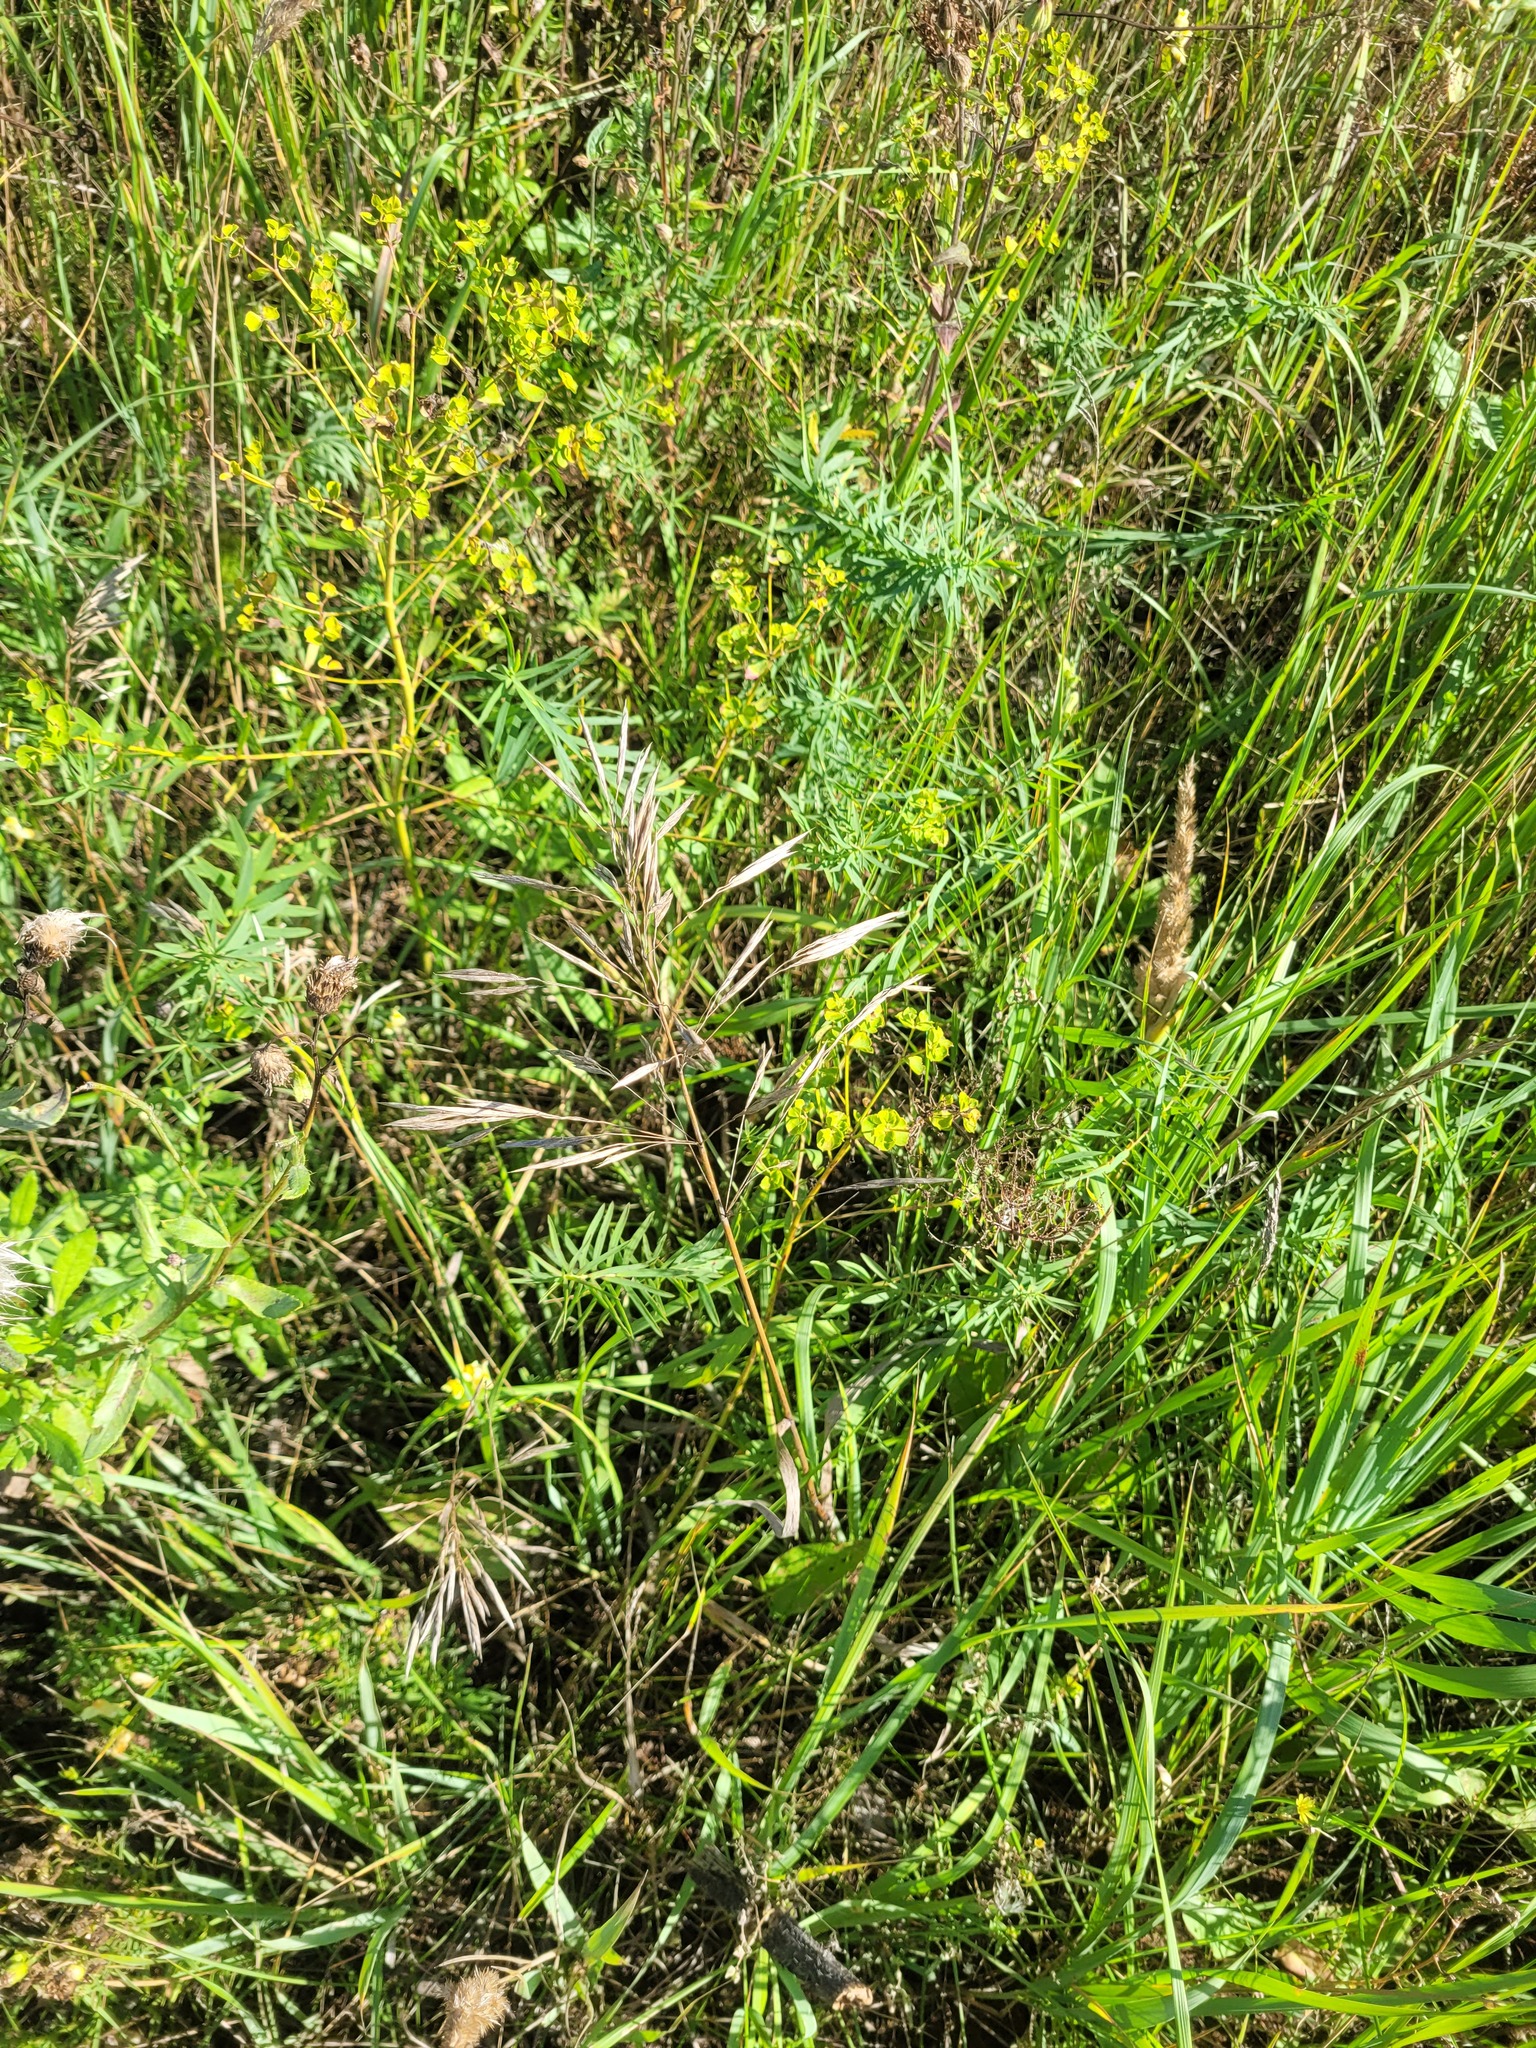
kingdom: Plantae
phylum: Tracheophyta
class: Liliopsida
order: Poales
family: Poaceae
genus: Bromus
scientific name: Bromus inermis
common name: Smooth brome
